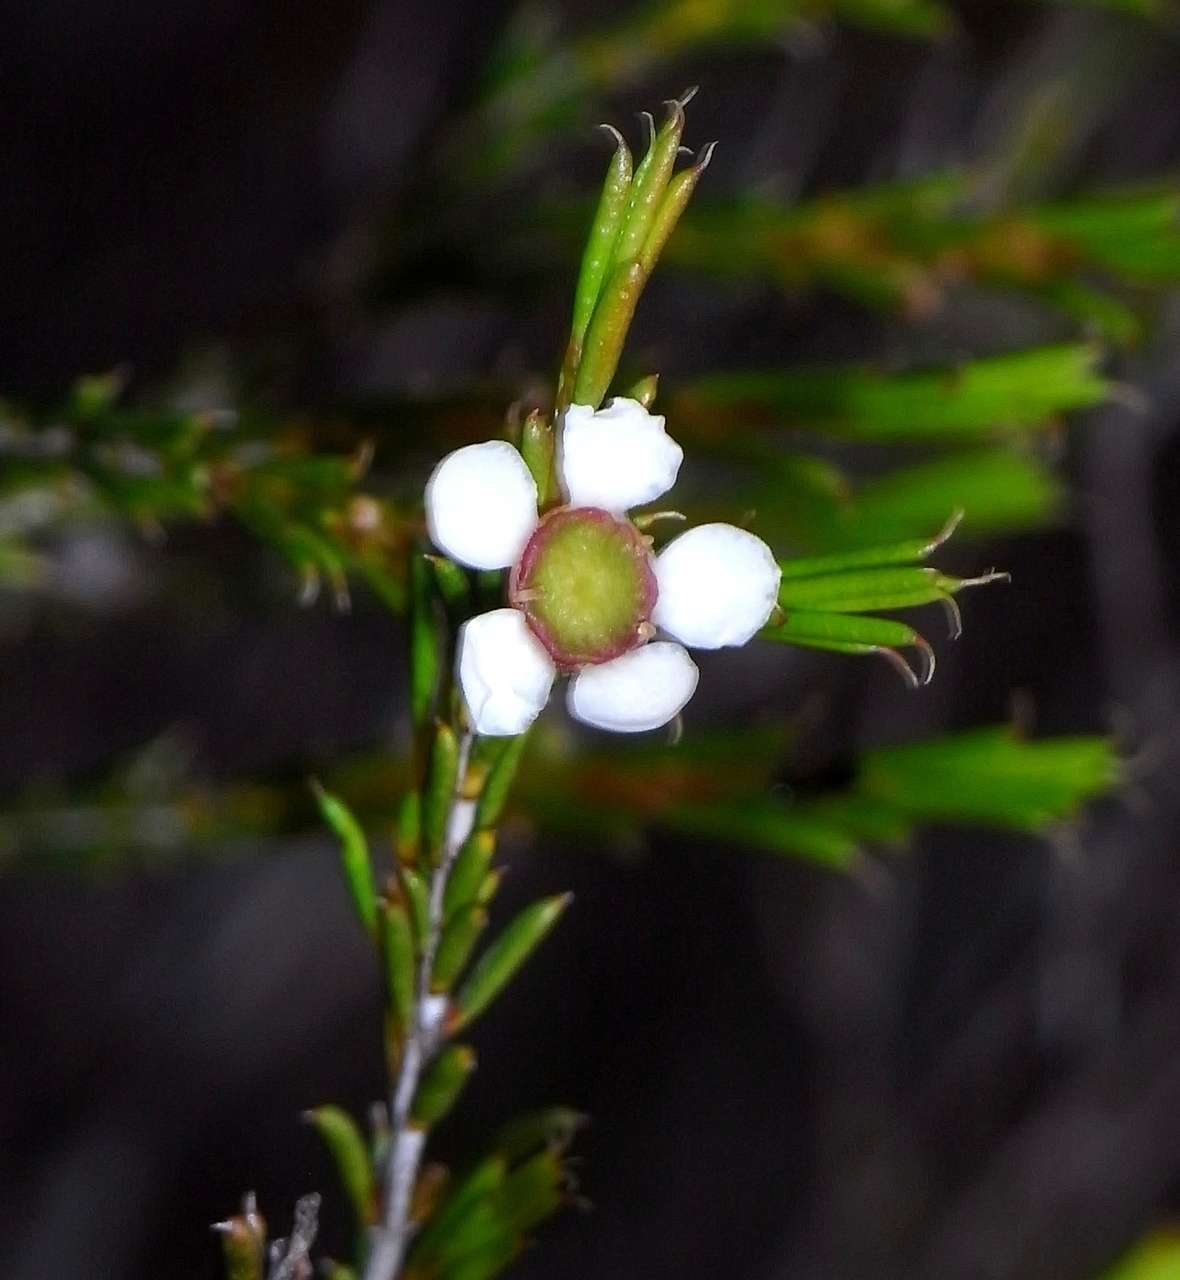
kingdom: Plantae
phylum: Tracheophyta
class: Magnoliopsida
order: Myrtales
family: Myrtaceae
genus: Hysterobaeckea
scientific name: Hysterobaeckea behrii
